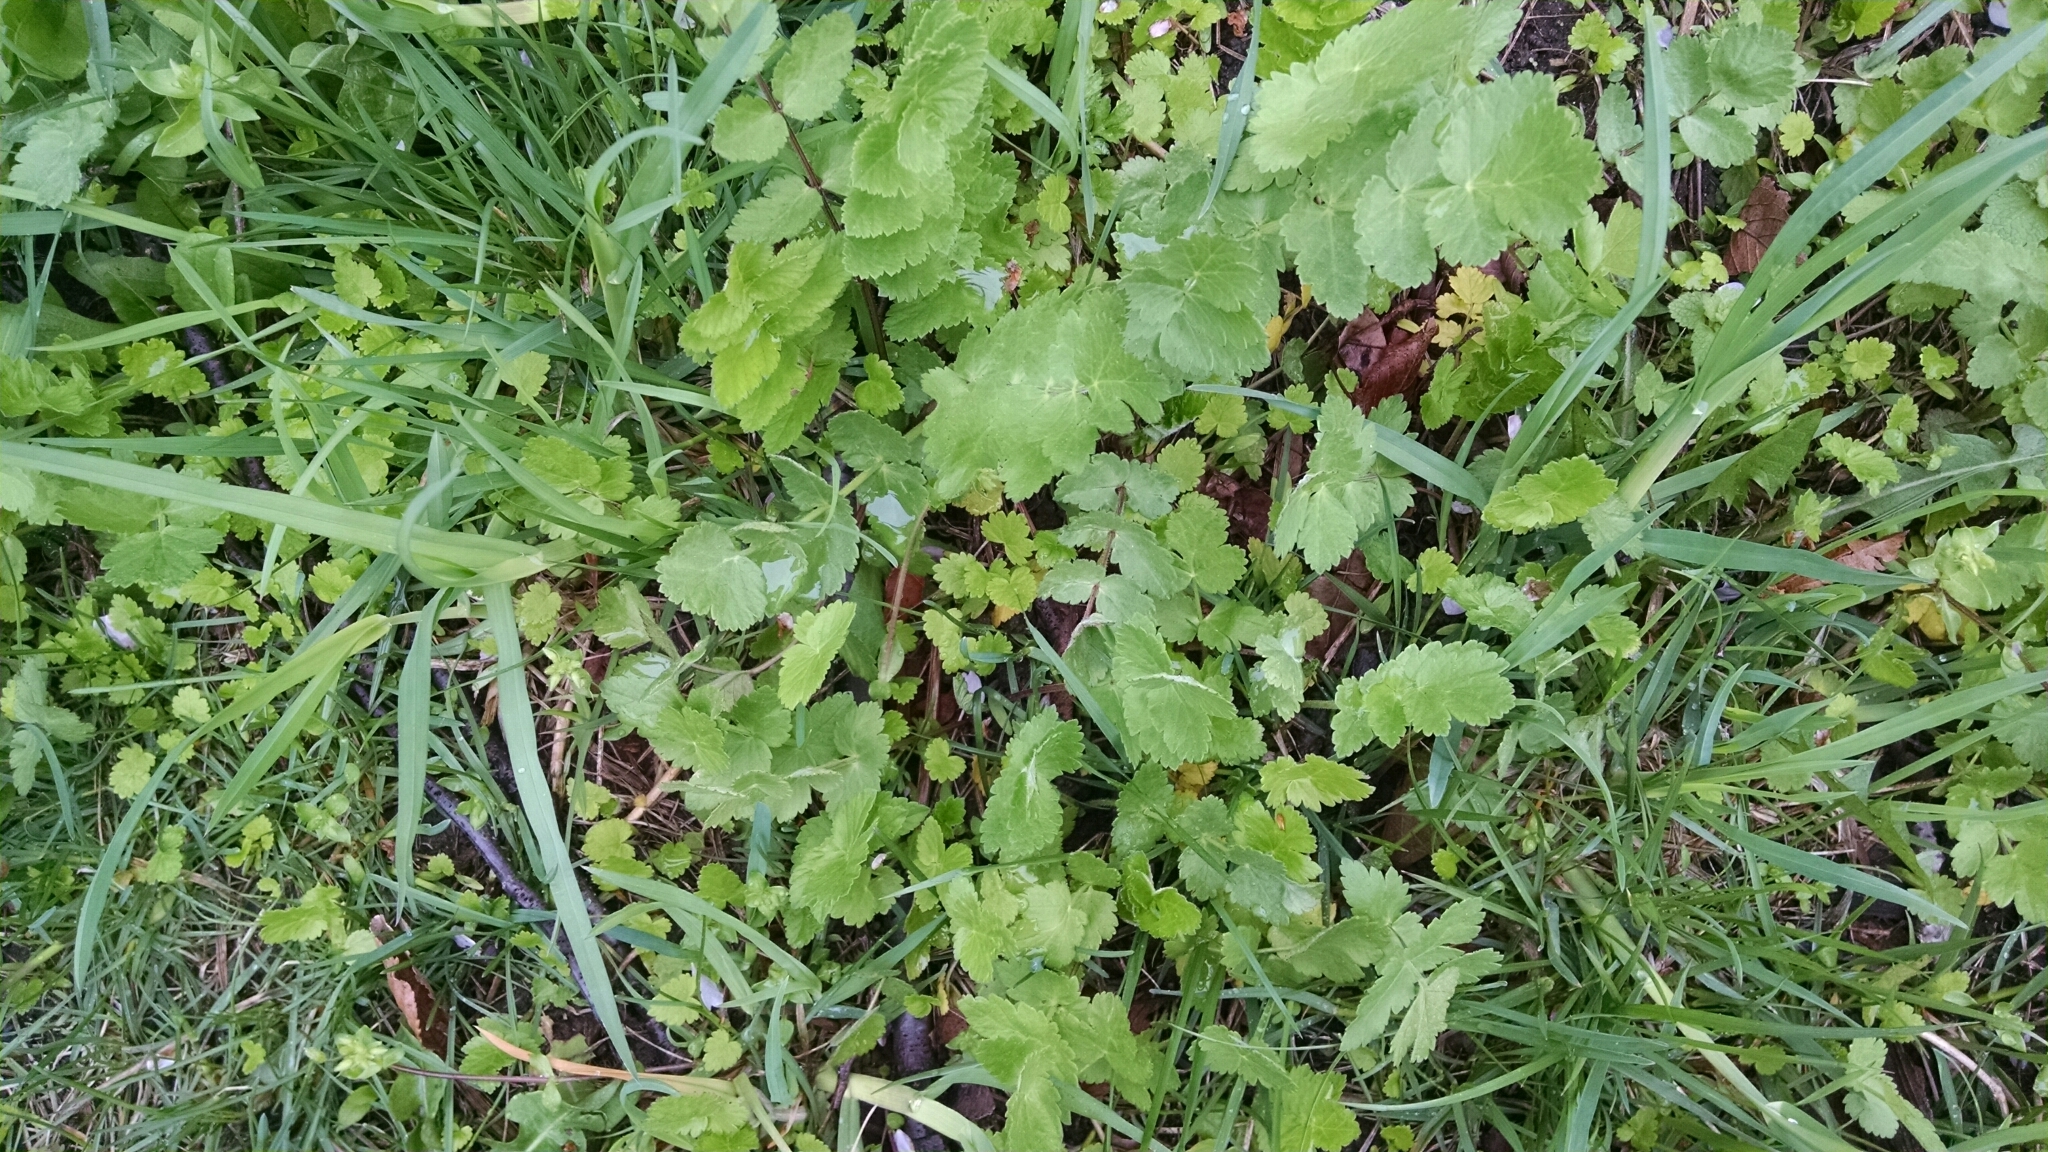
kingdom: Plantae
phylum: Tracheophyta
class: Magnoliopsida
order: Apiales
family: Apiaceae
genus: Pastinaca
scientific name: Pastinaca sativa
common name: Wild parsnip
